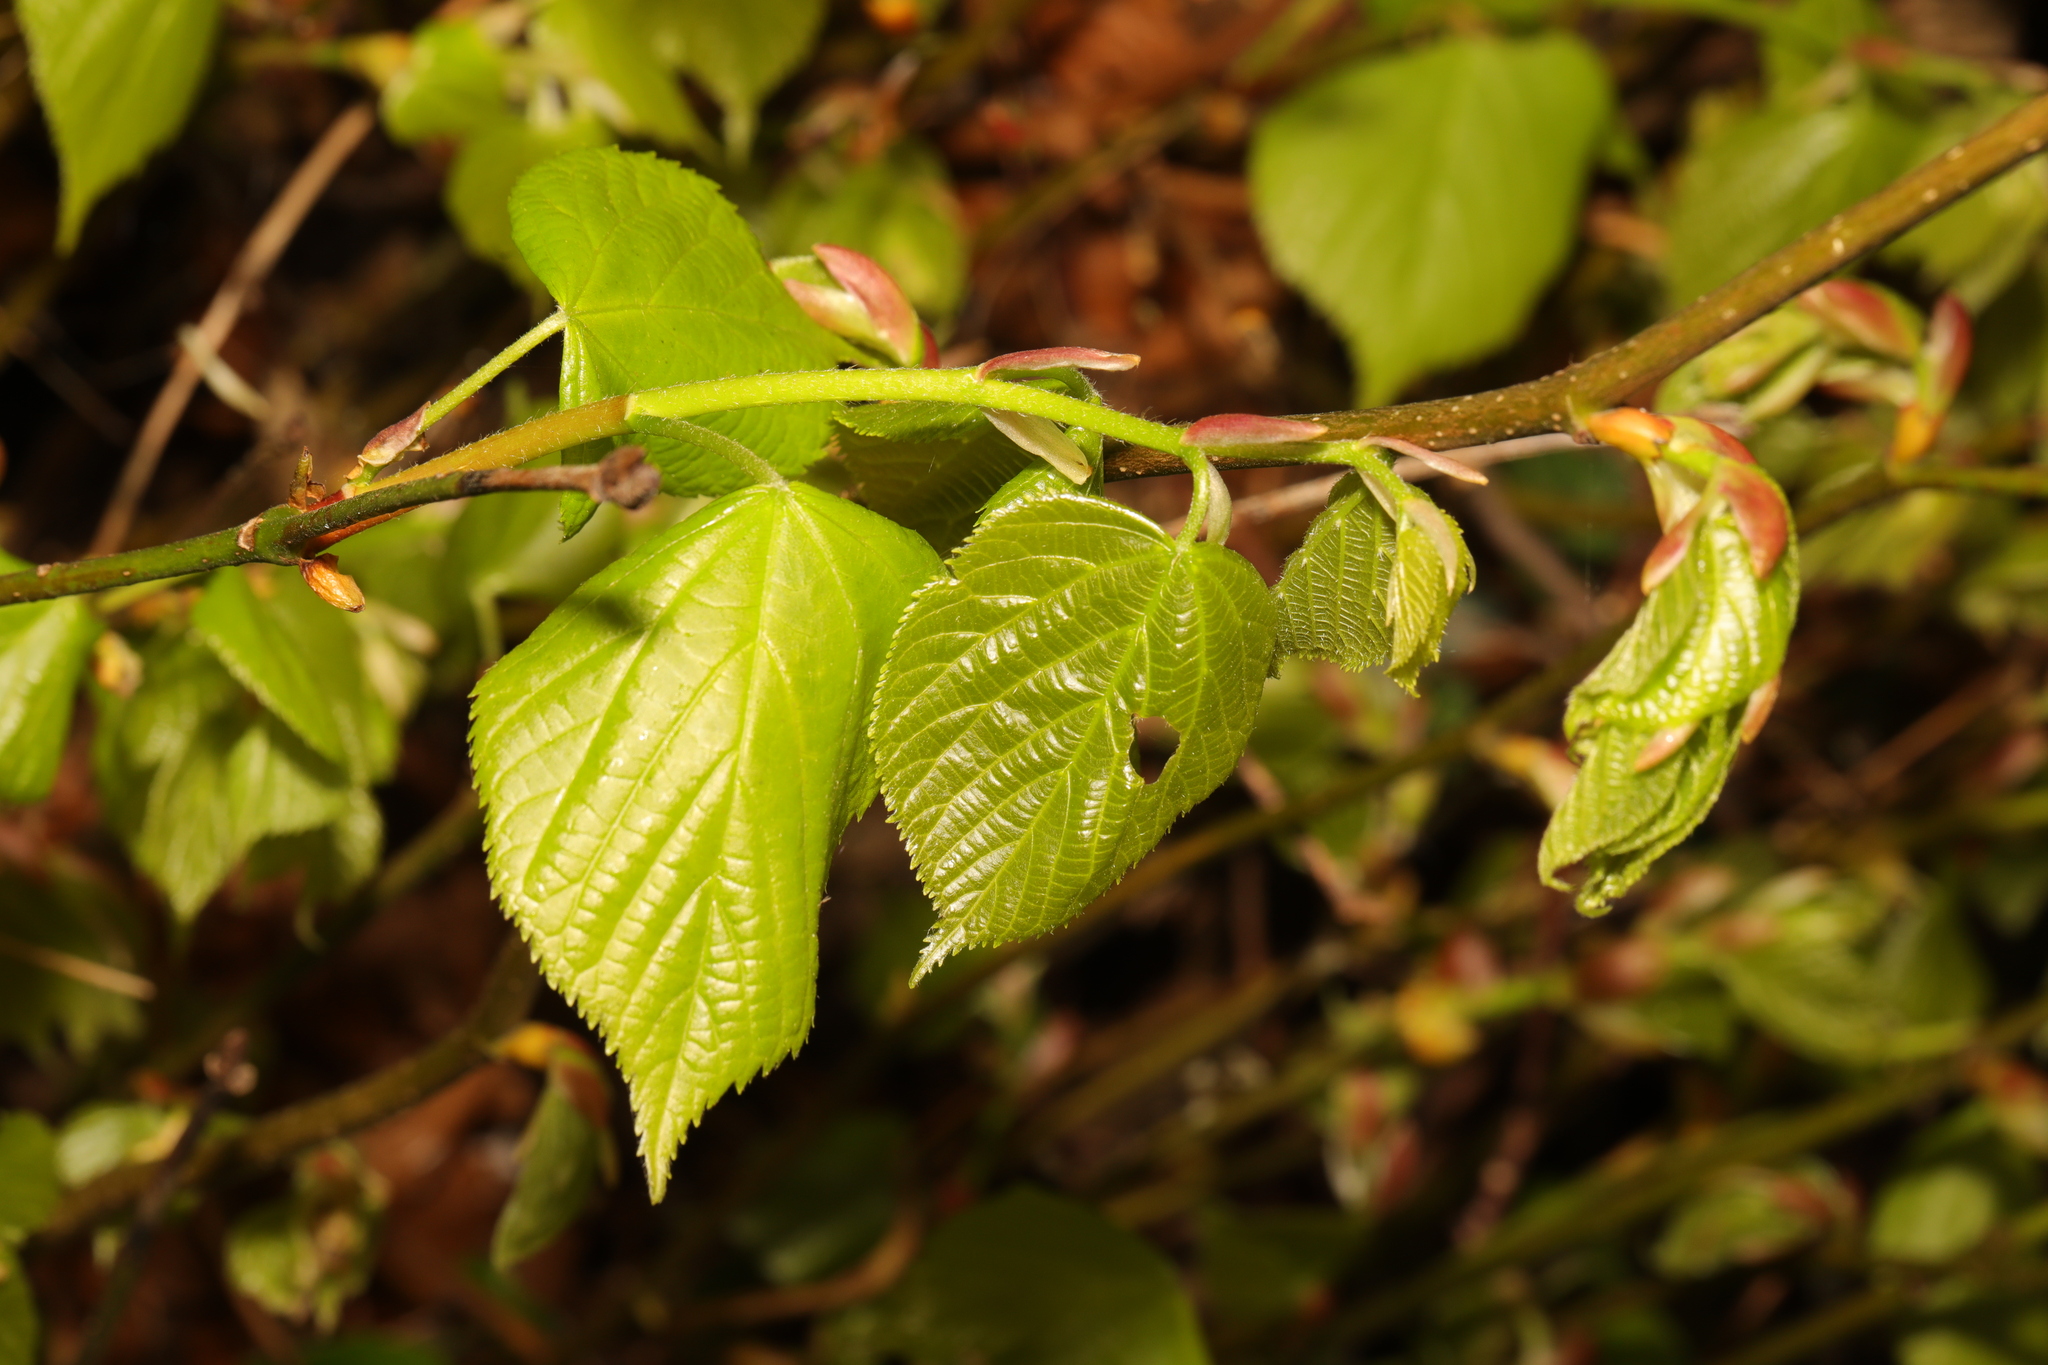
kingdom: Plantae
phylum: Tracheophyta
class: Magnoliopsida
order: Malvales
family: Malvaceae
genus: Tilia
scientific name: Tilia platyphyllos
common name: Large-leaved lime
